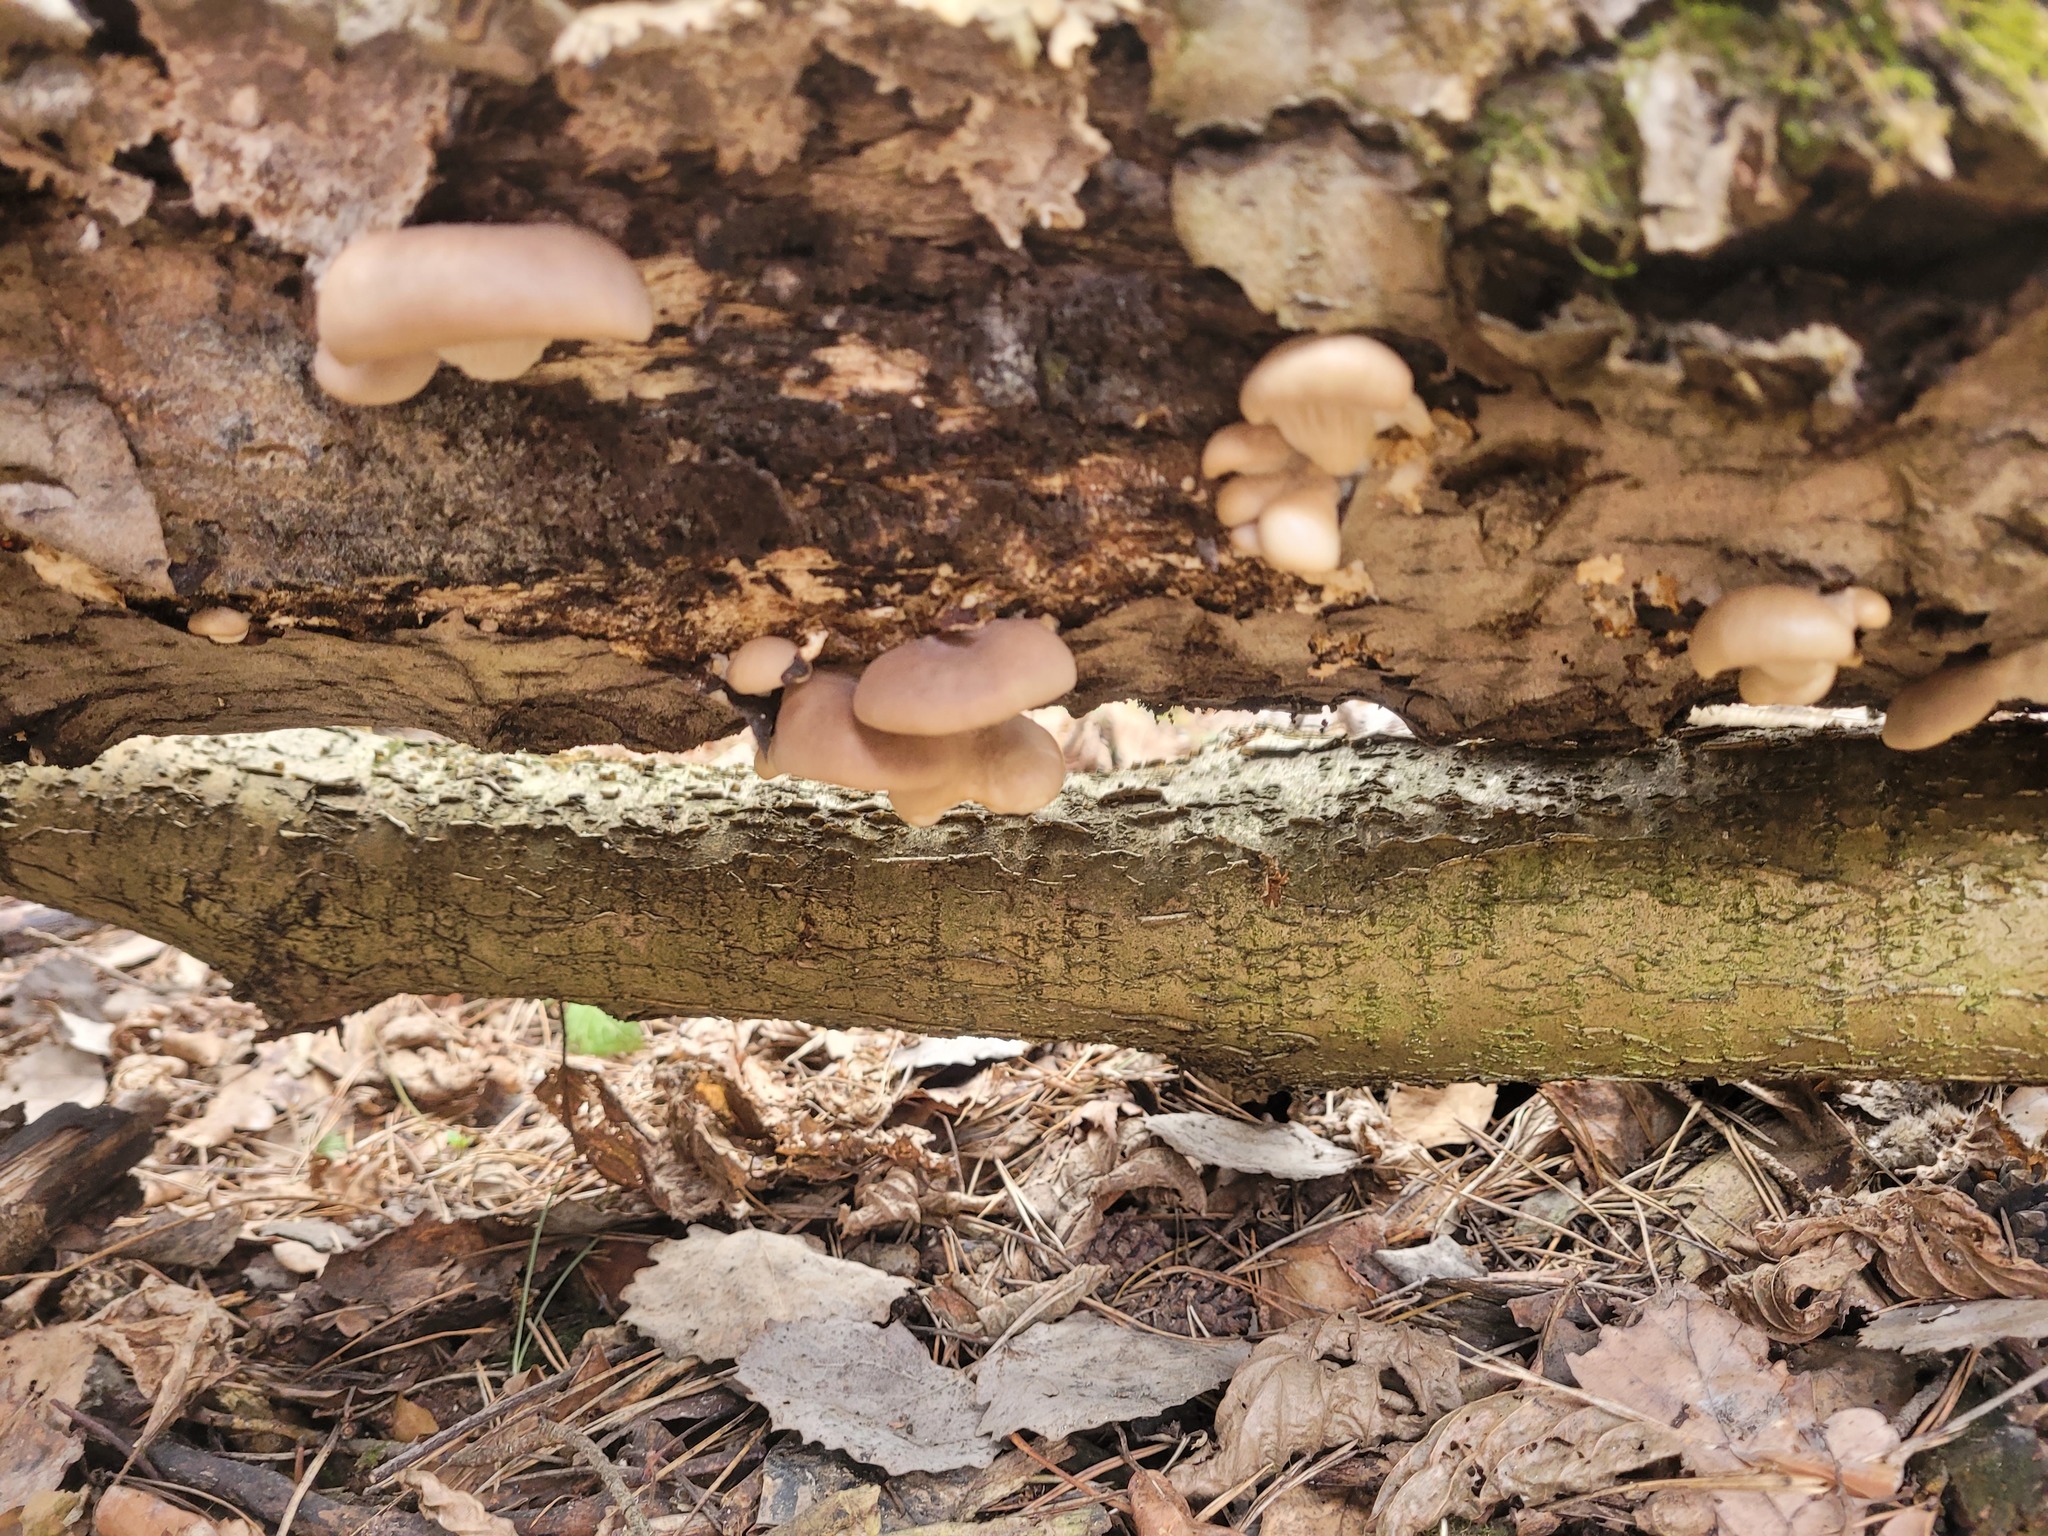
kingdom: Fungi
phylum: Basidiomycota
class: Agaricomycetes
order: Agaricales
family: Pleurotaceae
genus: Pleurotus
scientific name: Pleurotus ostreatus
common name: Oyster mushroom
